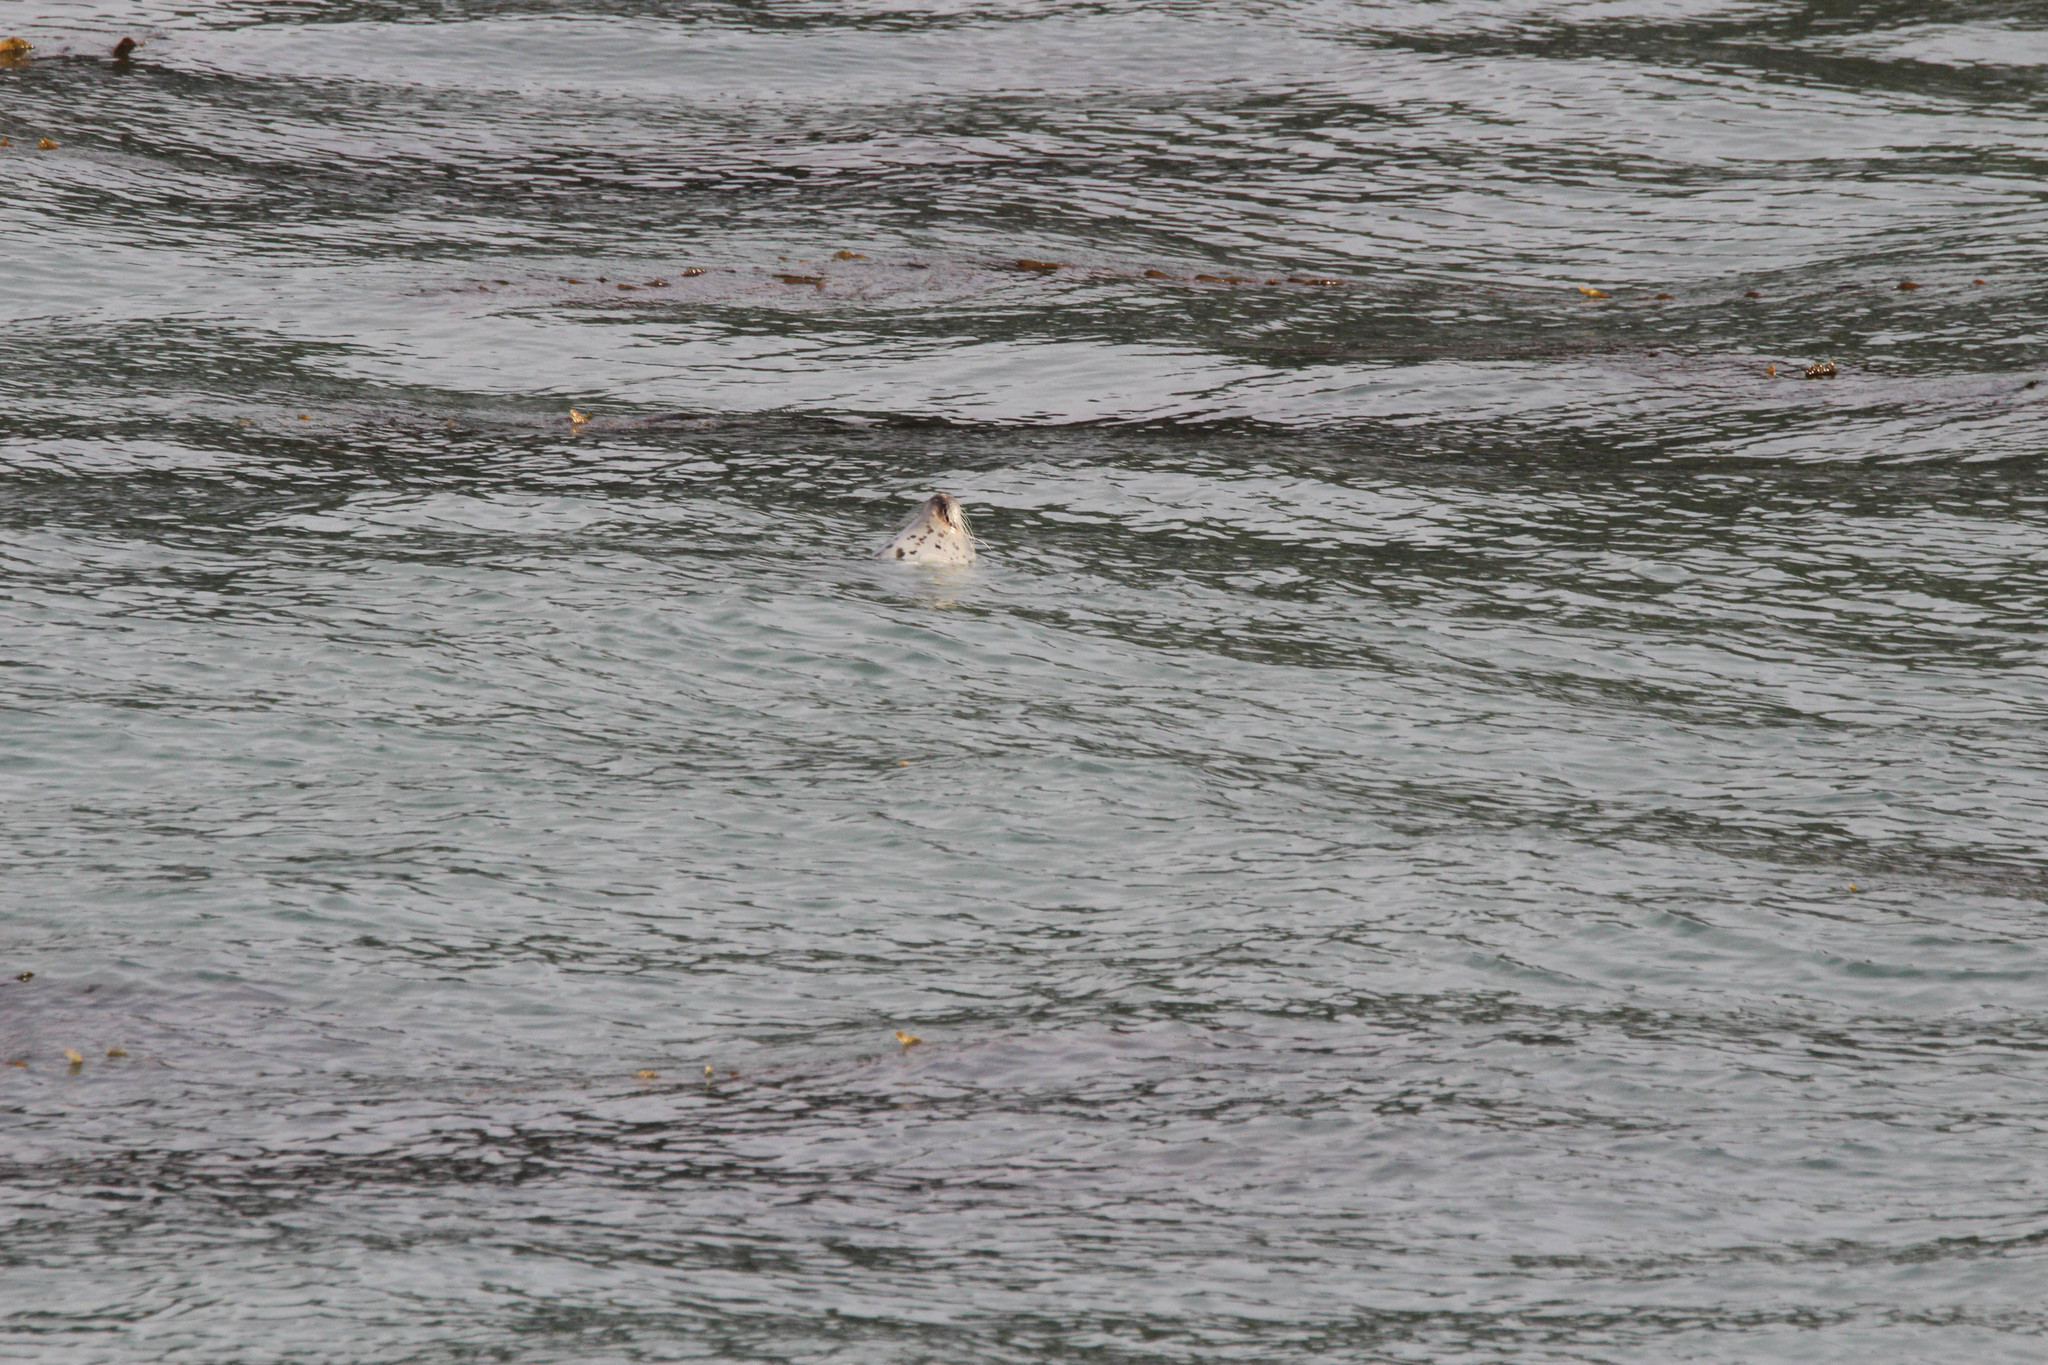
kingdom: Animalia
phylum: Chordata
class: Mammalia
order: Carnivora
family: Phocidae
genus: Phoca
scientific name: Phoca vitulina
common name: Harbor seal
